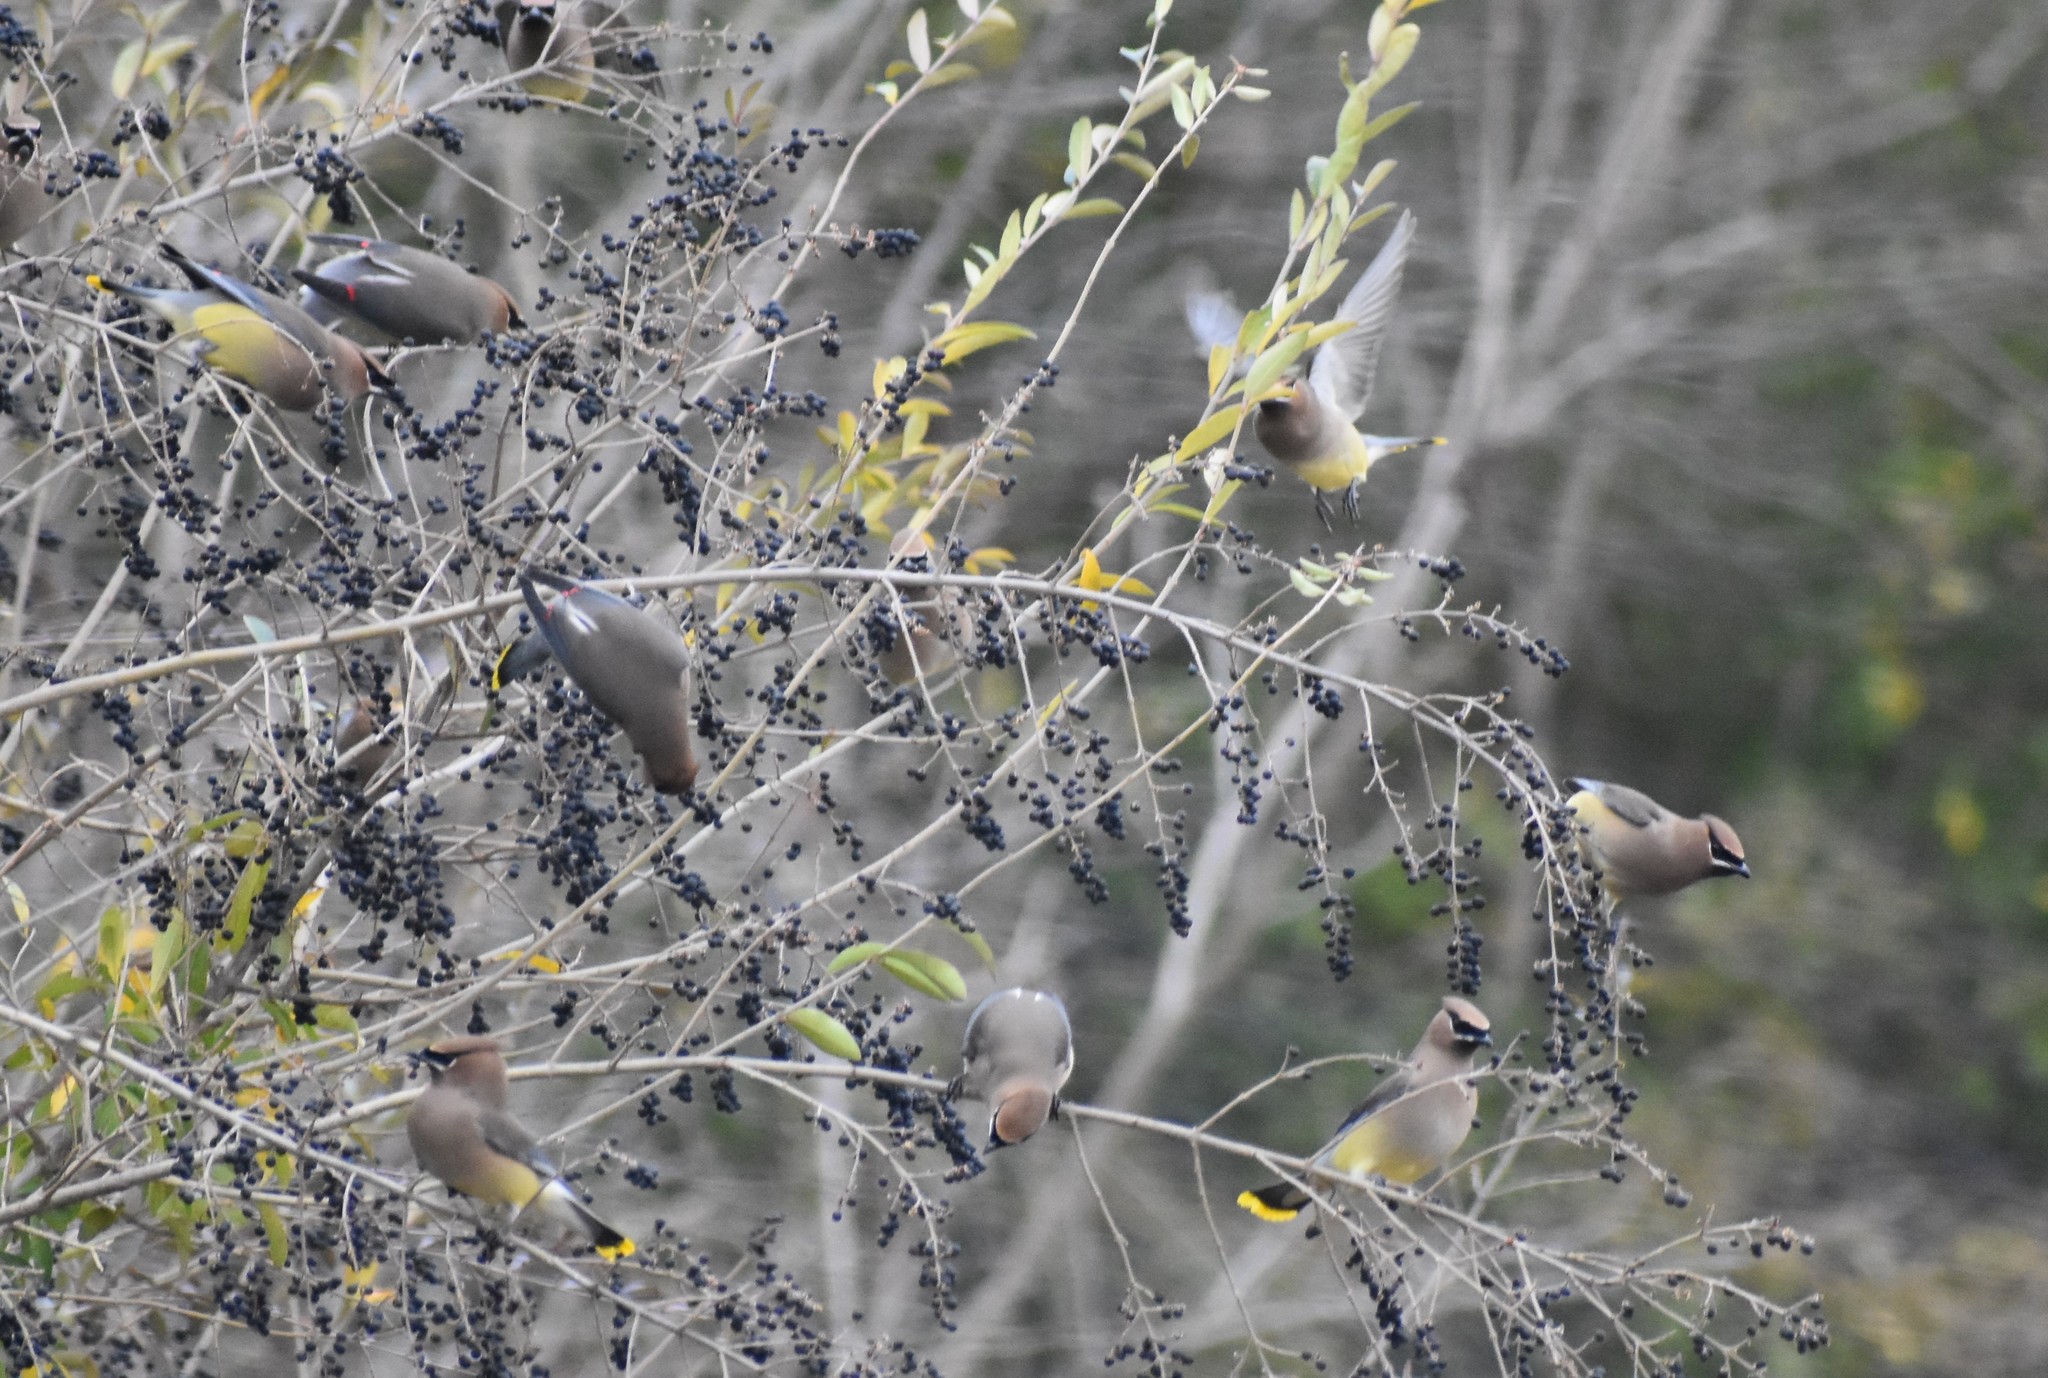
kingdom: Animalia
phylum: Chordata
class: Aves
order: Passeriformes
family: Bombycillidae
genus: Bombycilla
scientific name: Bombycilla cedrorum
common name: Cedar waxwing
